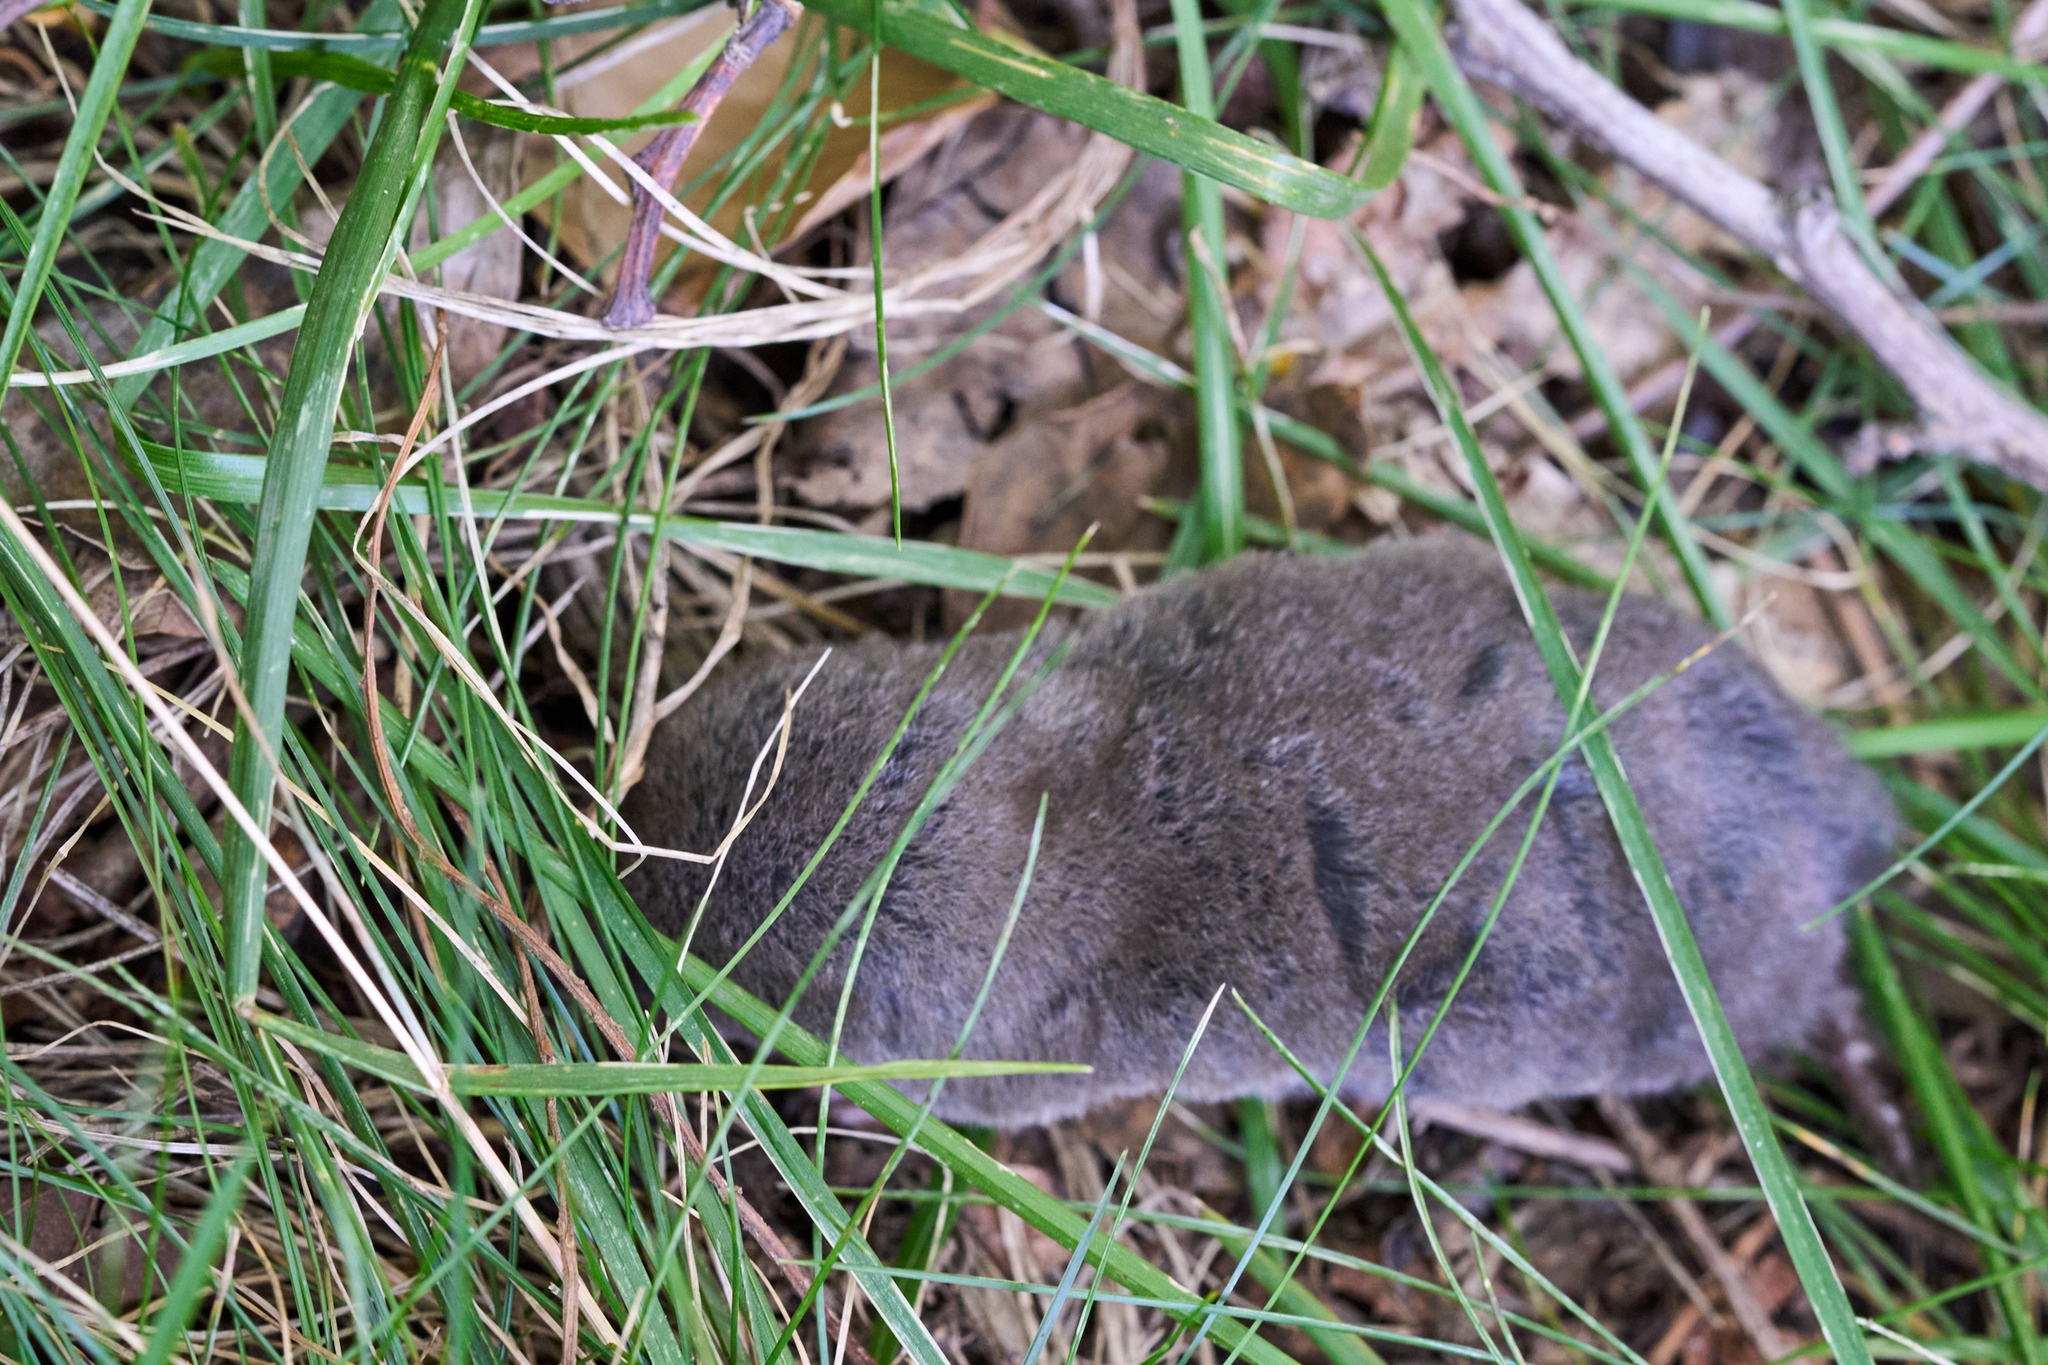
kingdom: Animalia
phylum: Chordata
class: Mammalia
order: Soricomorpha
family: Soricidae
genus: Blarina
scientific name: Blarina brevicauda
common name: Northern short-tailed shrew
